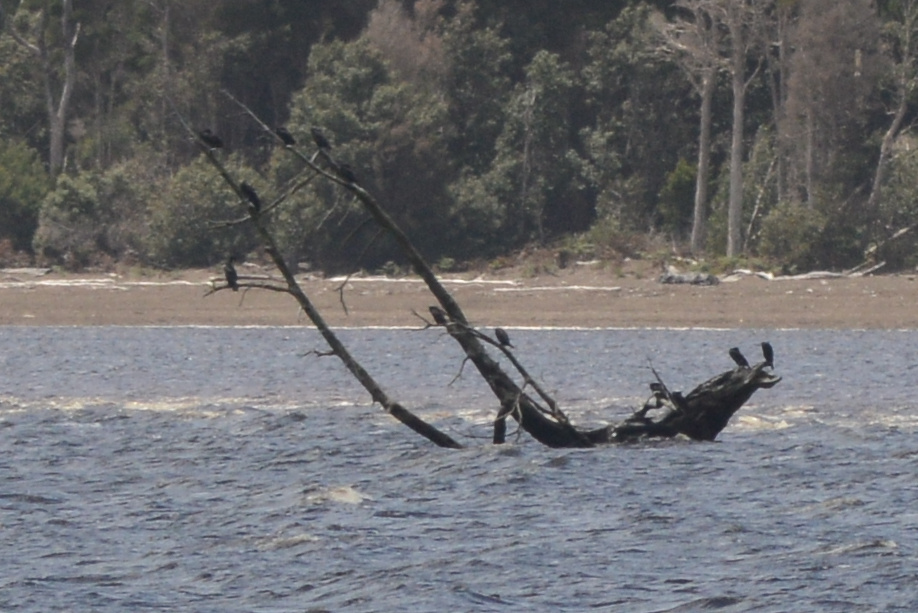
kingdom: Animalia
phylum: Chordata
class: Aves
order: Suliformes
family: Phalacrocoracidae
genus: Phalacrocorax
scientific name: Phalacrocorax sulcirostris
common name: Little black cormorant
